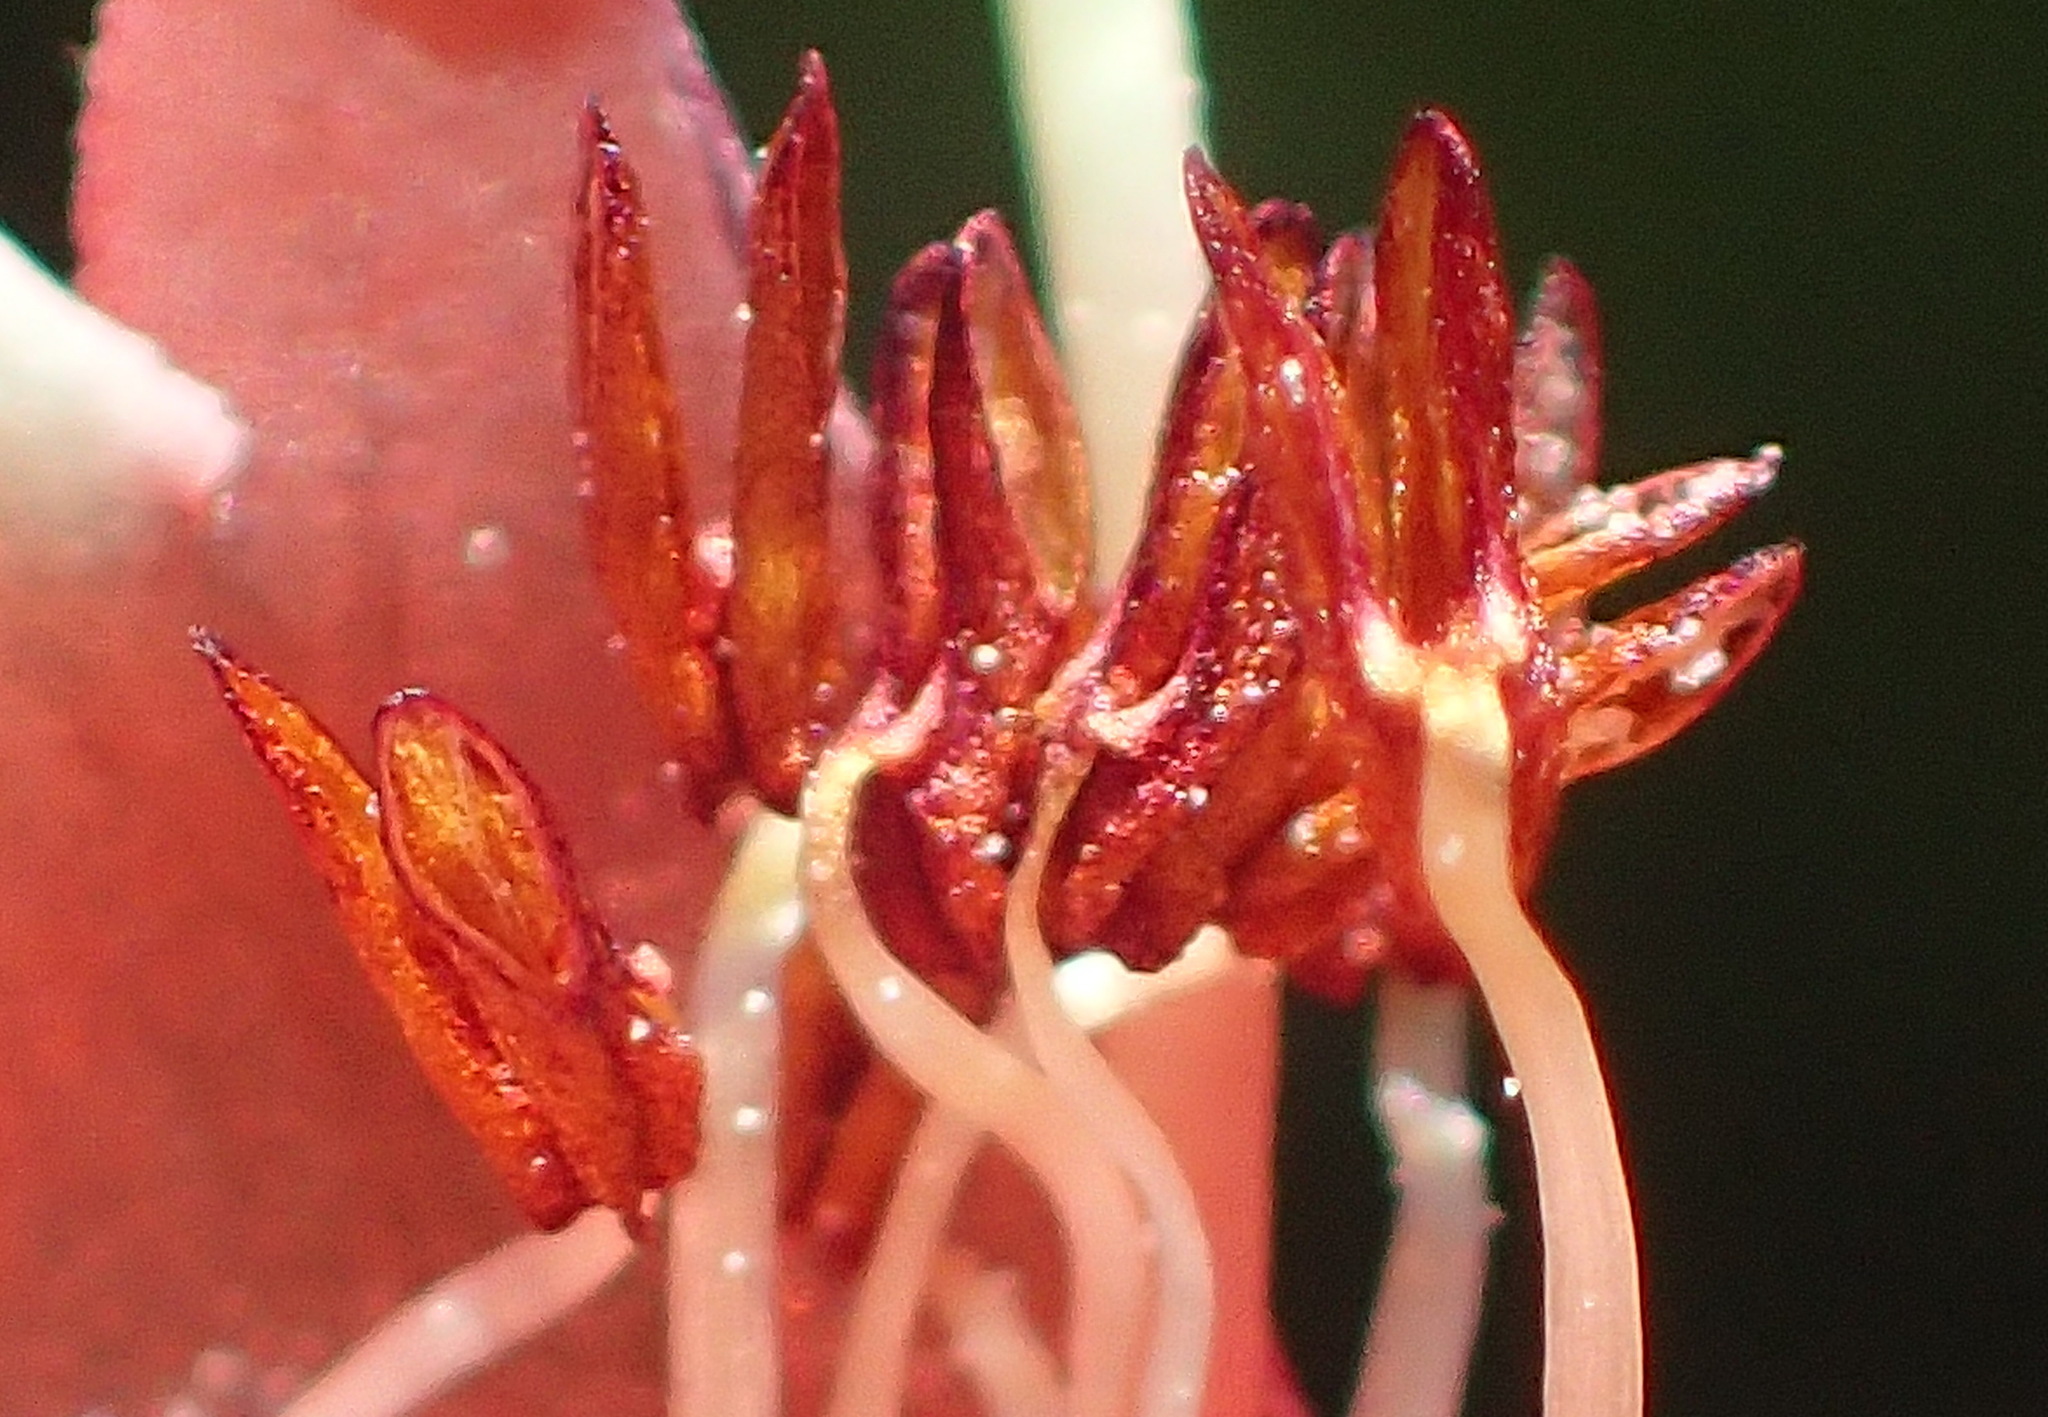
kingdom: Plantae
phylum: Tracheophyta
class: Magnoliopsida
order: Ericales
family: Ericaceae
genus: Erica
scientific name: Erica glandulosa
